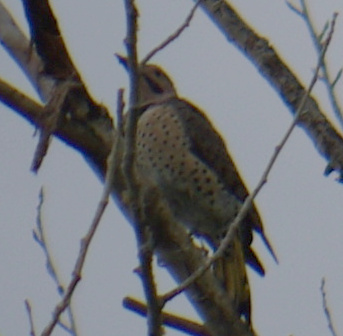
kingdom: Animalia
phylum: Chordata
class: Aves
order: Piciformes
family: Picidae
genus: Colaptes
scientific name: Colaptes auratus
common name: Northern flicker
